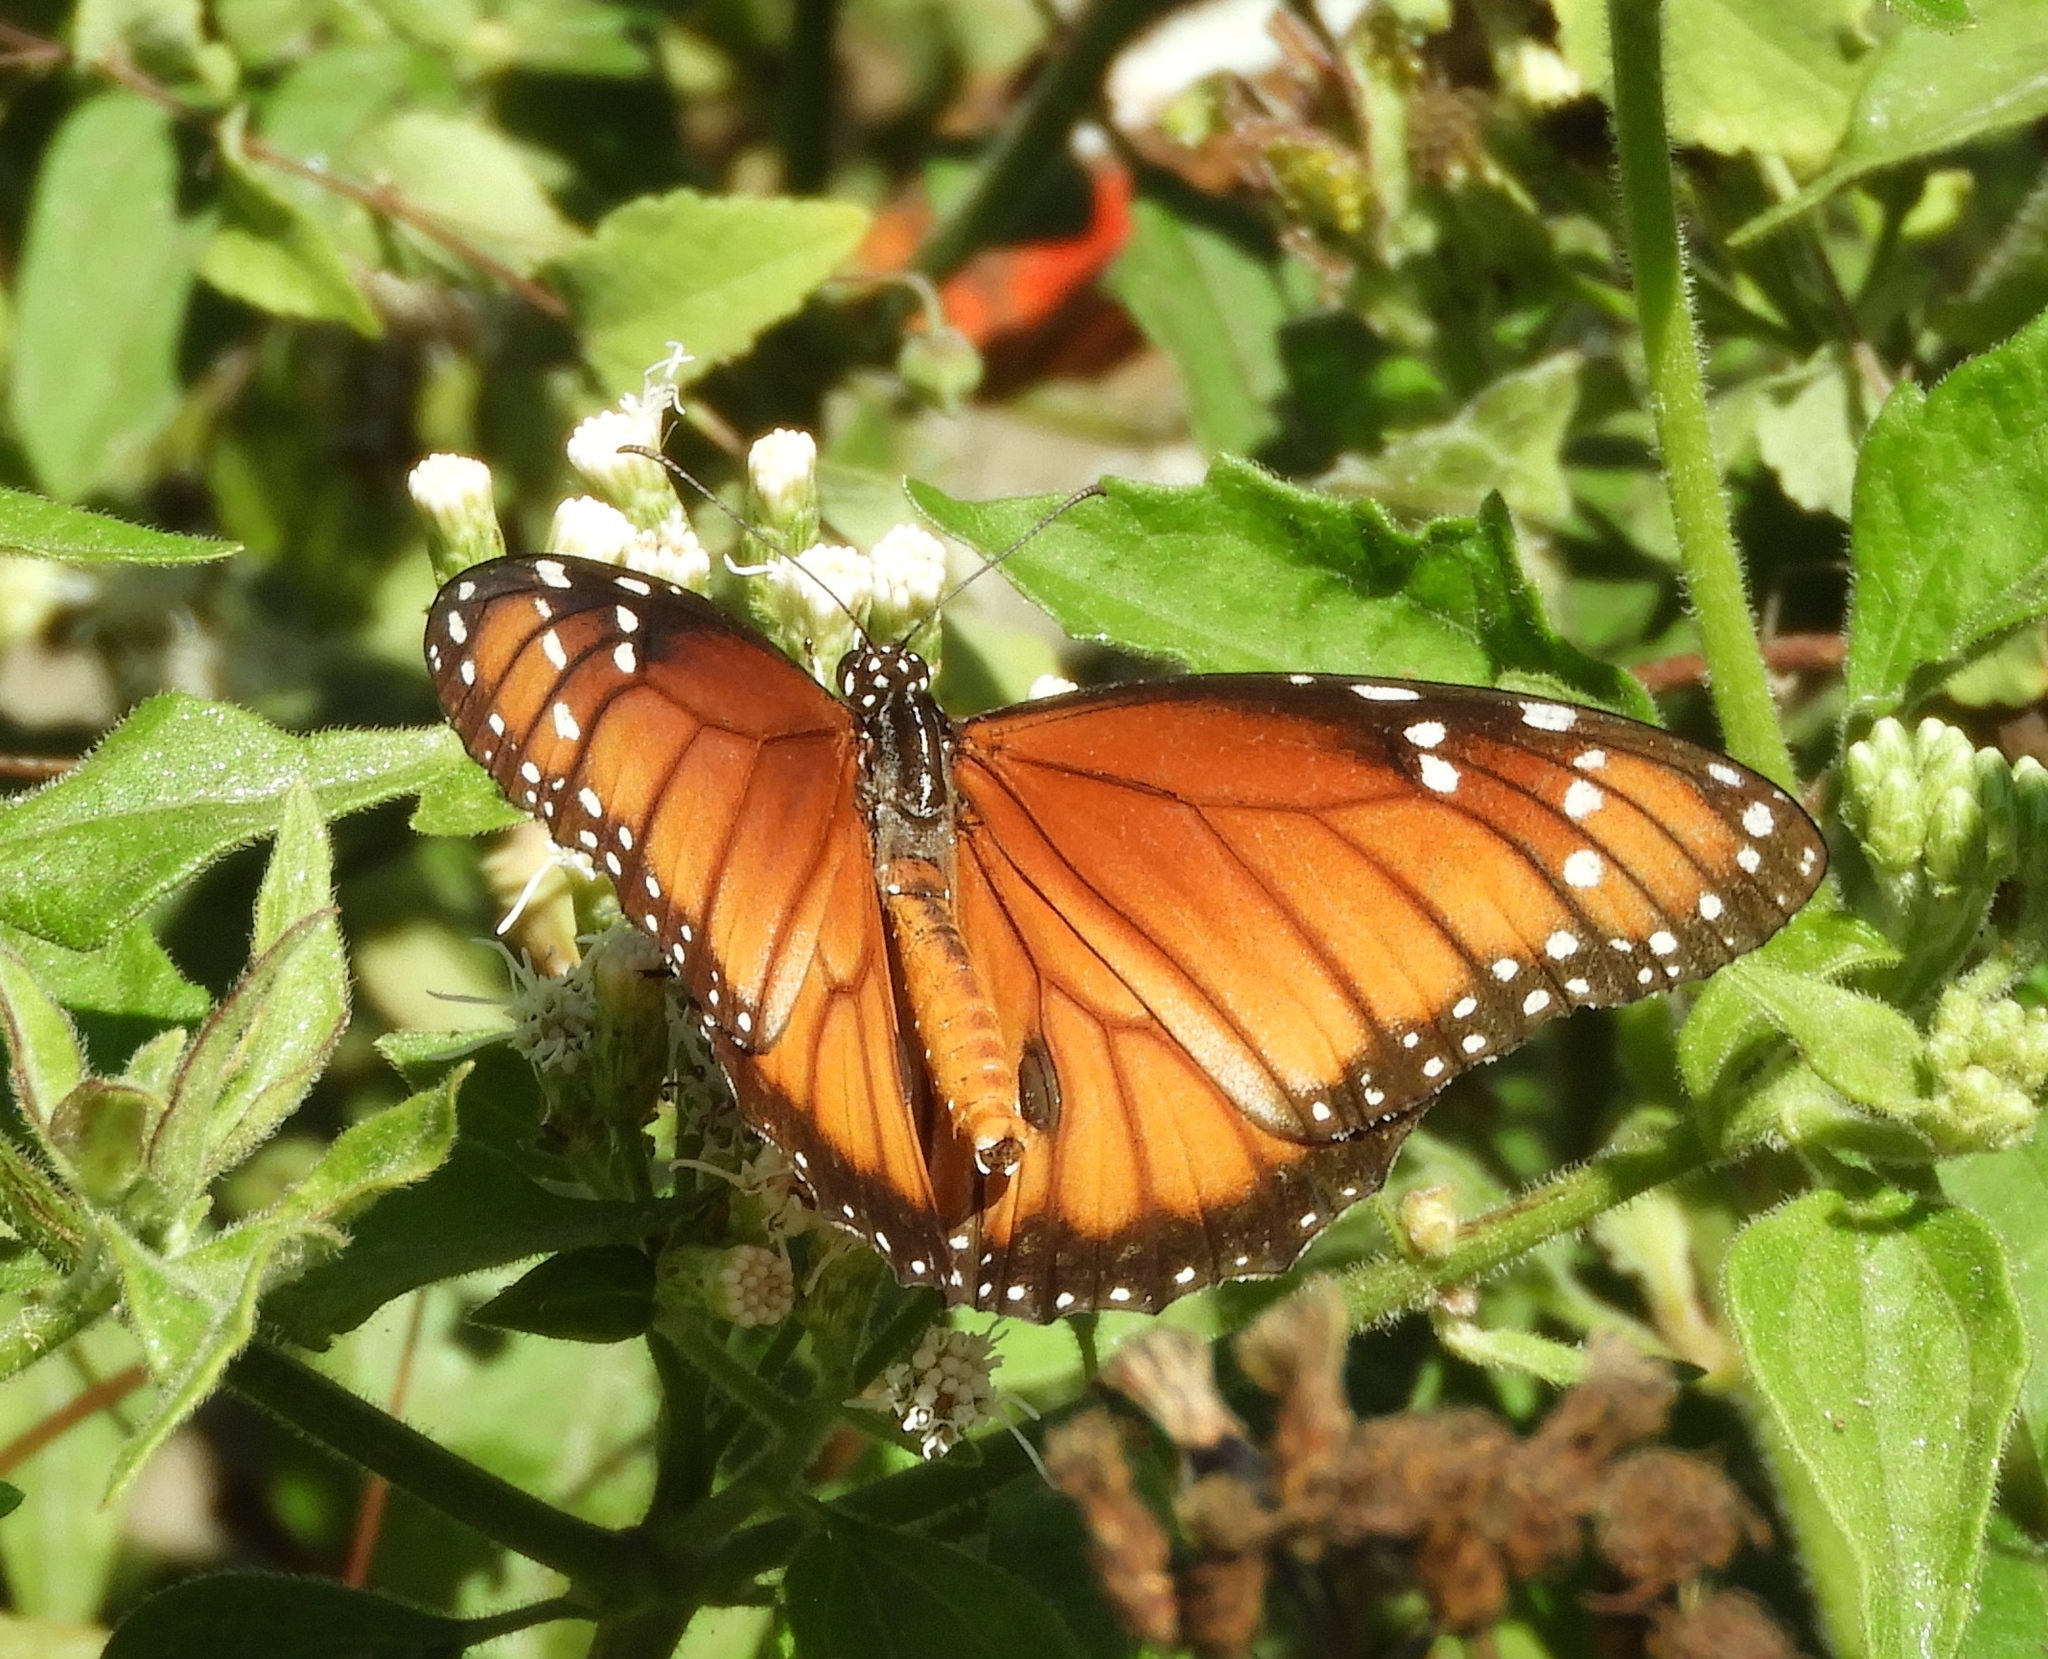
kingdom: Animalia
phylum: Arthropoda
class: Insecta
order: Lepidoptera
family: Nymphalidae
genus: Danaus
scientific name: Danaus eresimus
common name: Soldier
